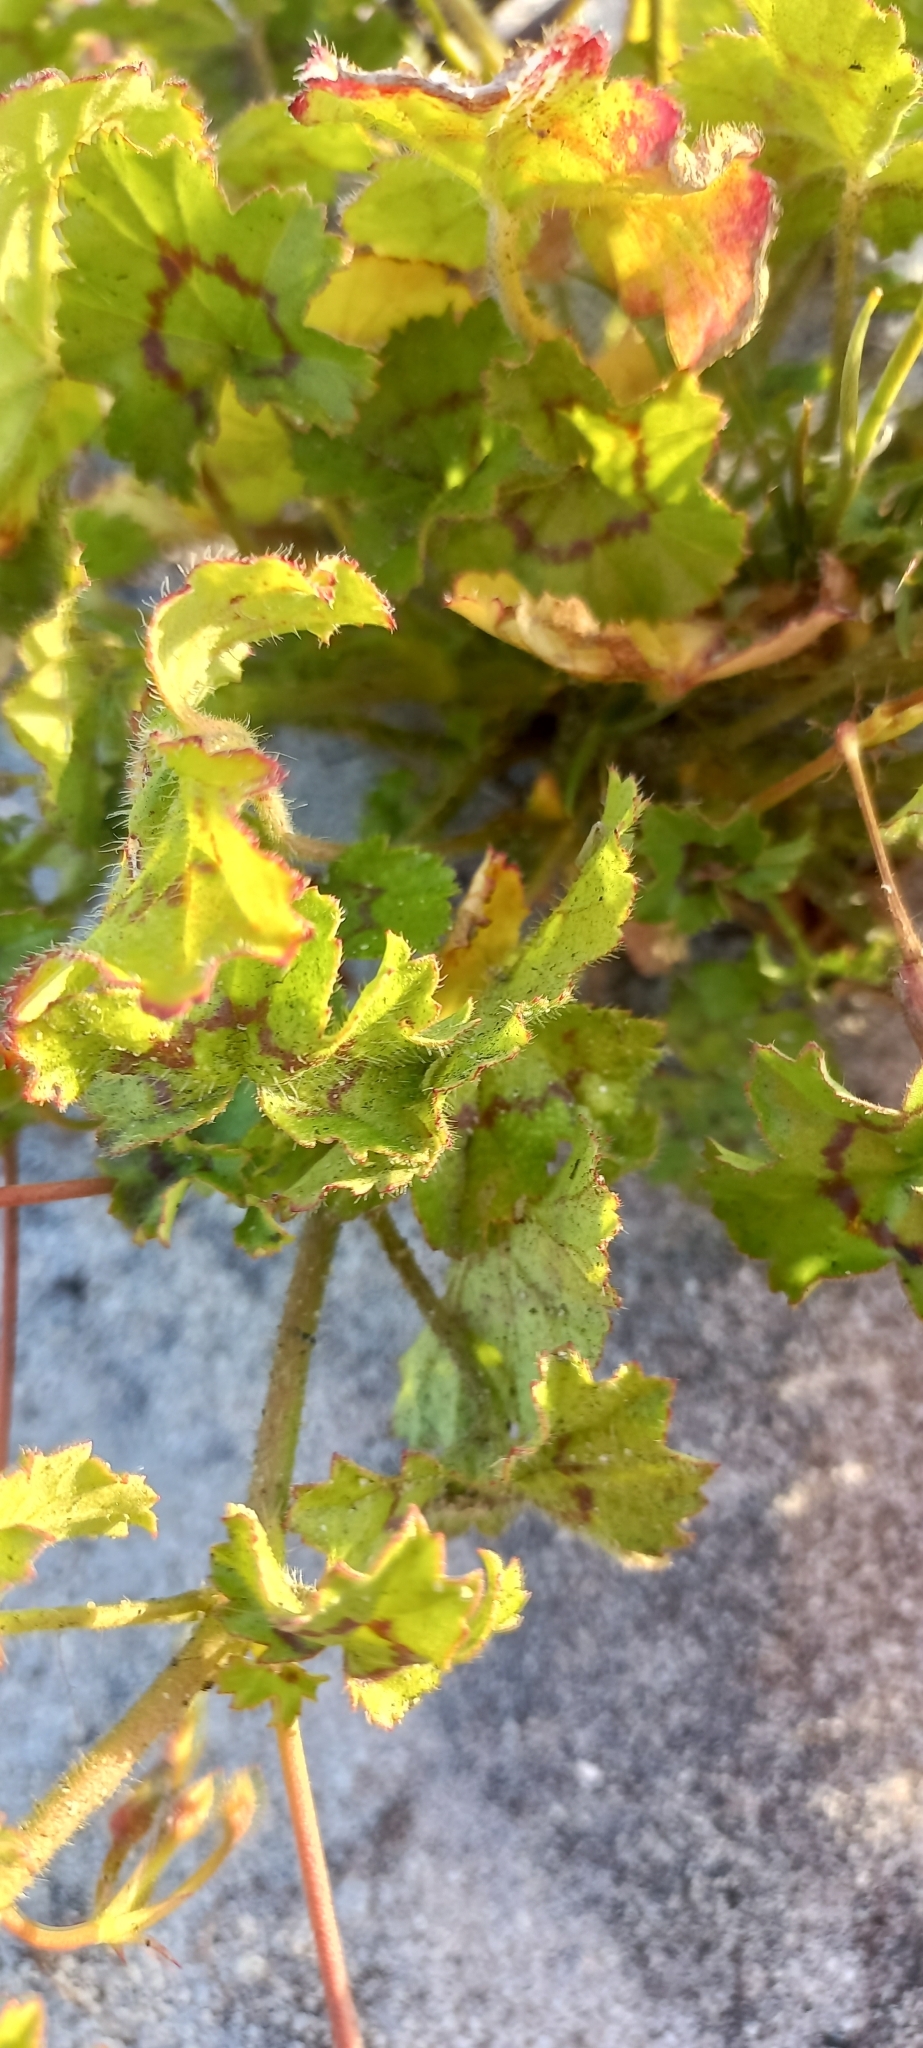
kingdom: Plantae
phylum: Tracheophyta
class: Magnoliopsida
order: Geraniales
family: Geraniaceae
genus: Pelargonium
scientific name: Pelargonium elongatum
